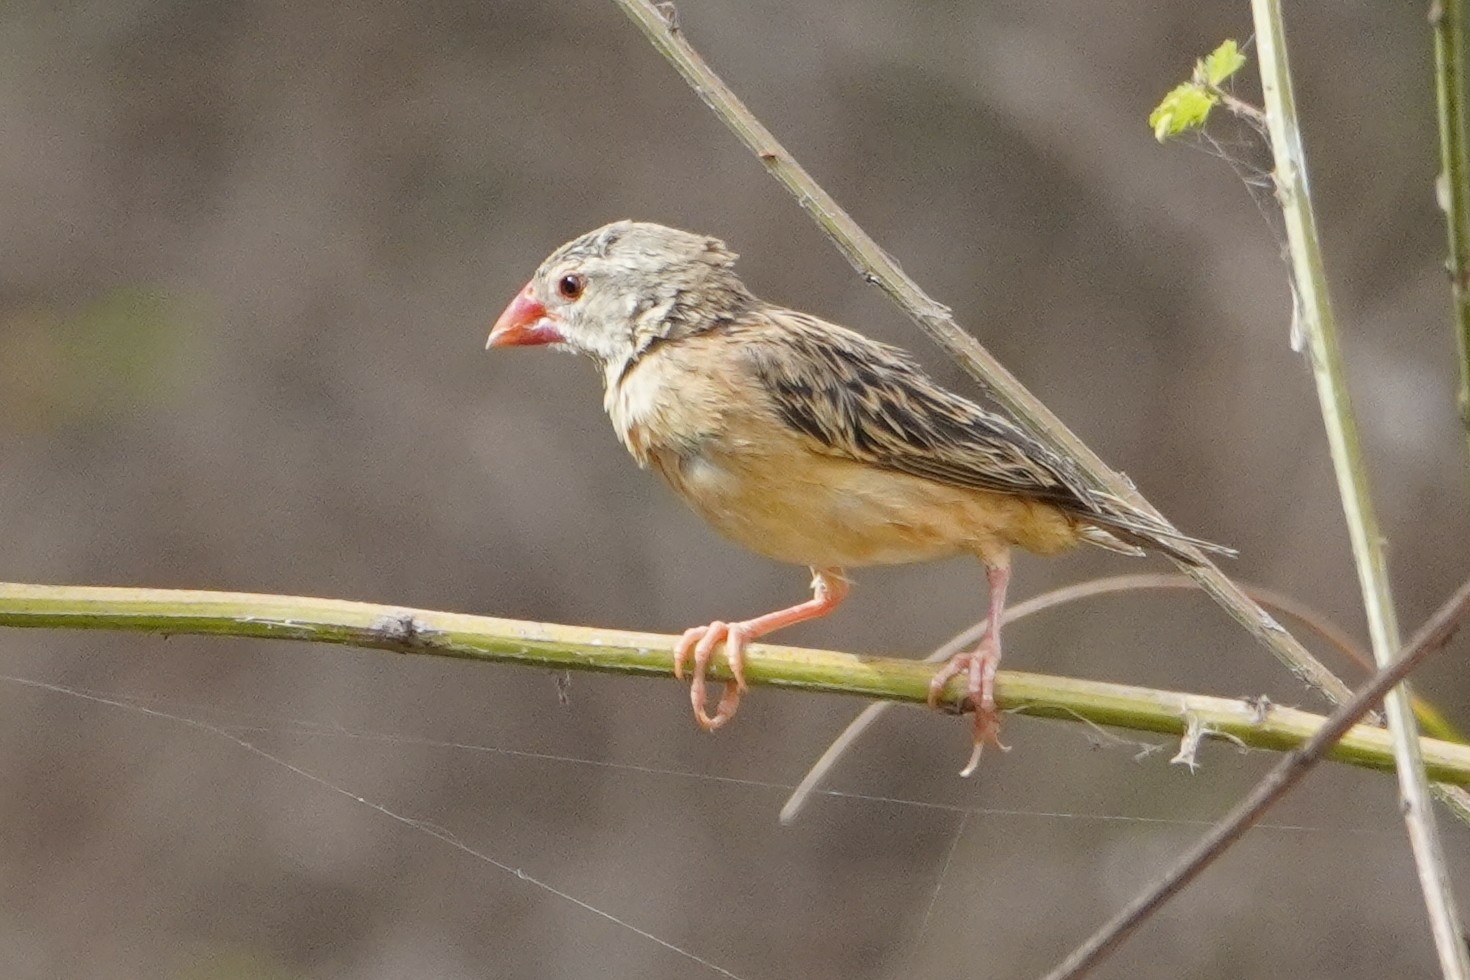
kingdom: Animalia
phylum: Chordata
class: Aves
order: Passeriformes
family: Ploceidae
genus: Quelea
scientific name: Quelea quelea
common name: Red-billed quelea
